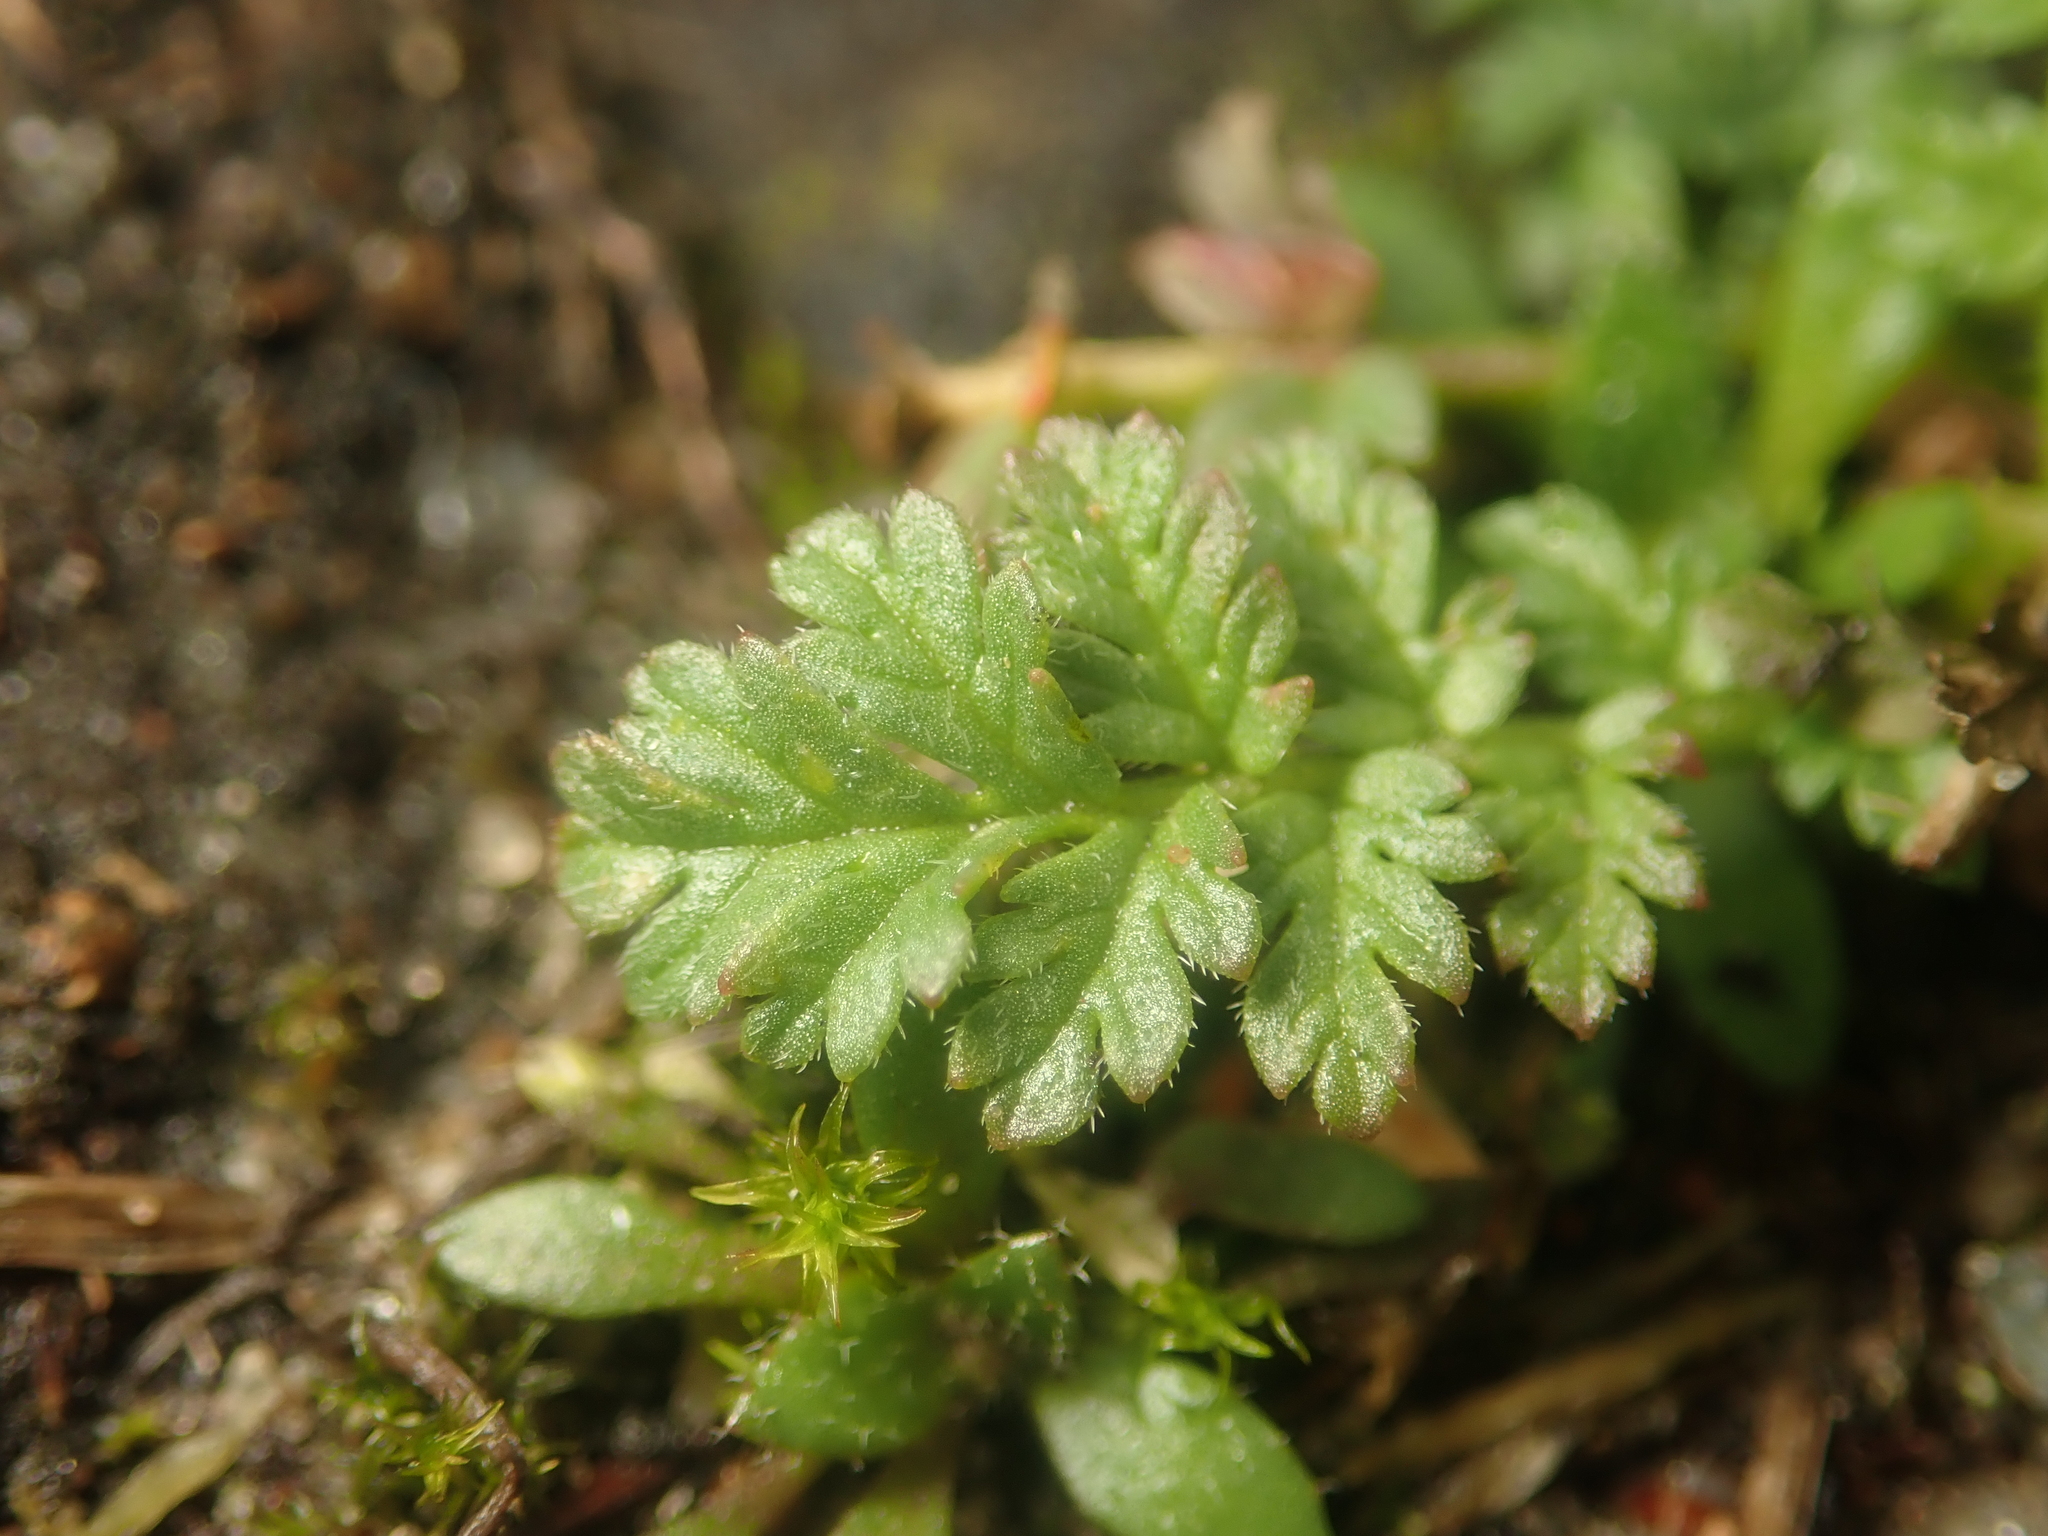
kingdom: Plantae
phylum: Tracheophyta
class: Magnoliopsida
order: Geraniales
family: Geraniaceae
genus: Erodium
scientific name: Erodium cicutarium
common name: Common stork's-bill
